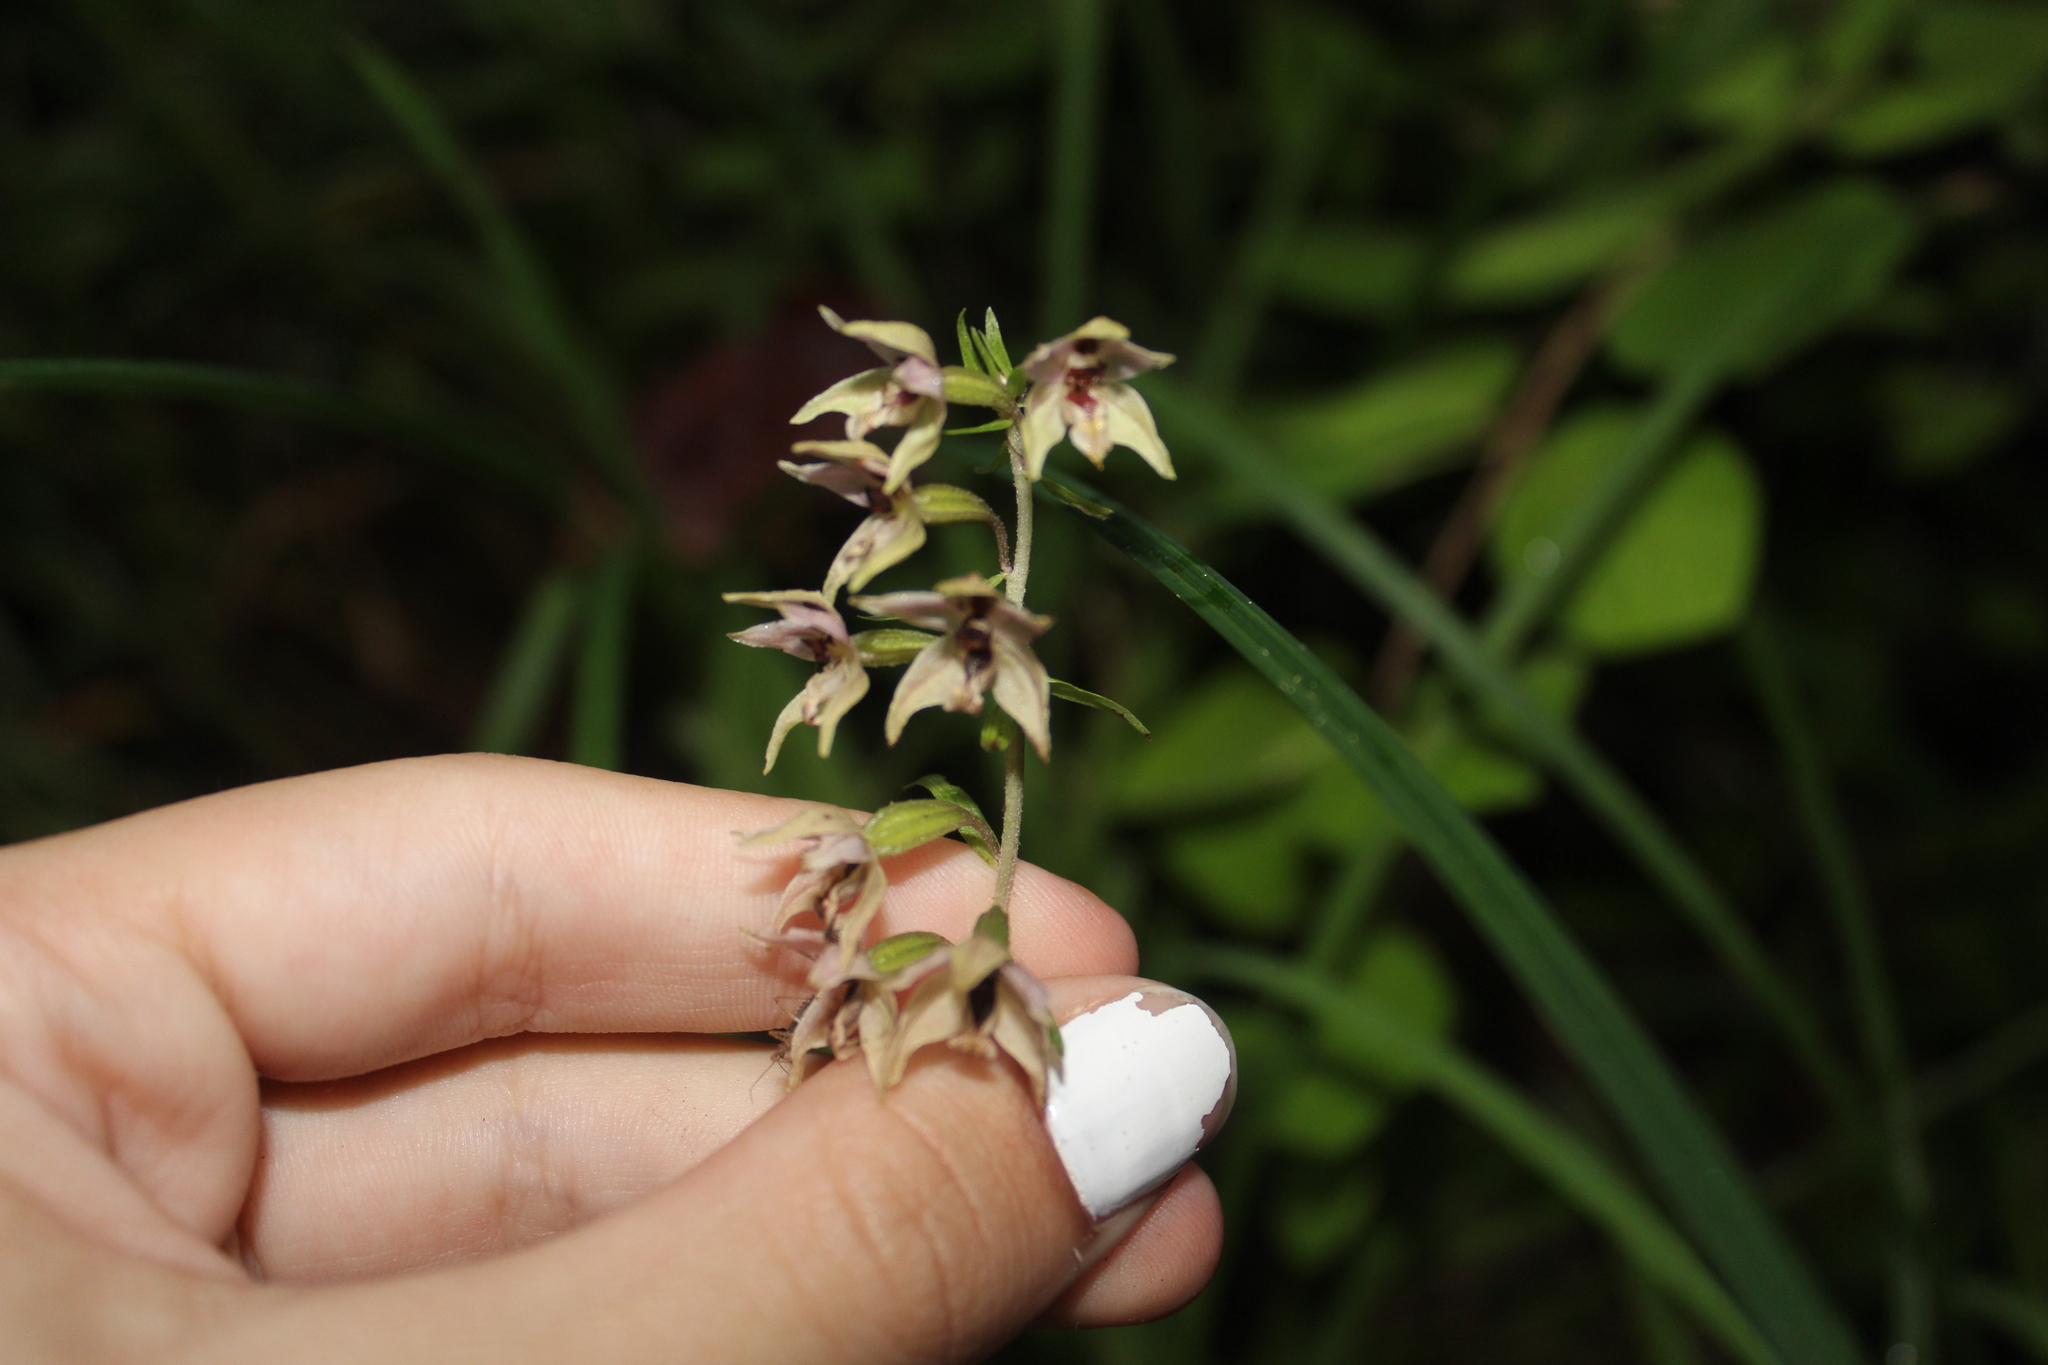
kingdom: Plantae
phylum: Tracheophyta
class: Liliopsida
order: Asparagales
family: Orchidaceae
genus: Epipactis
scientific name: Epipactis helleborine
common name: Broad-leaved helleborine
